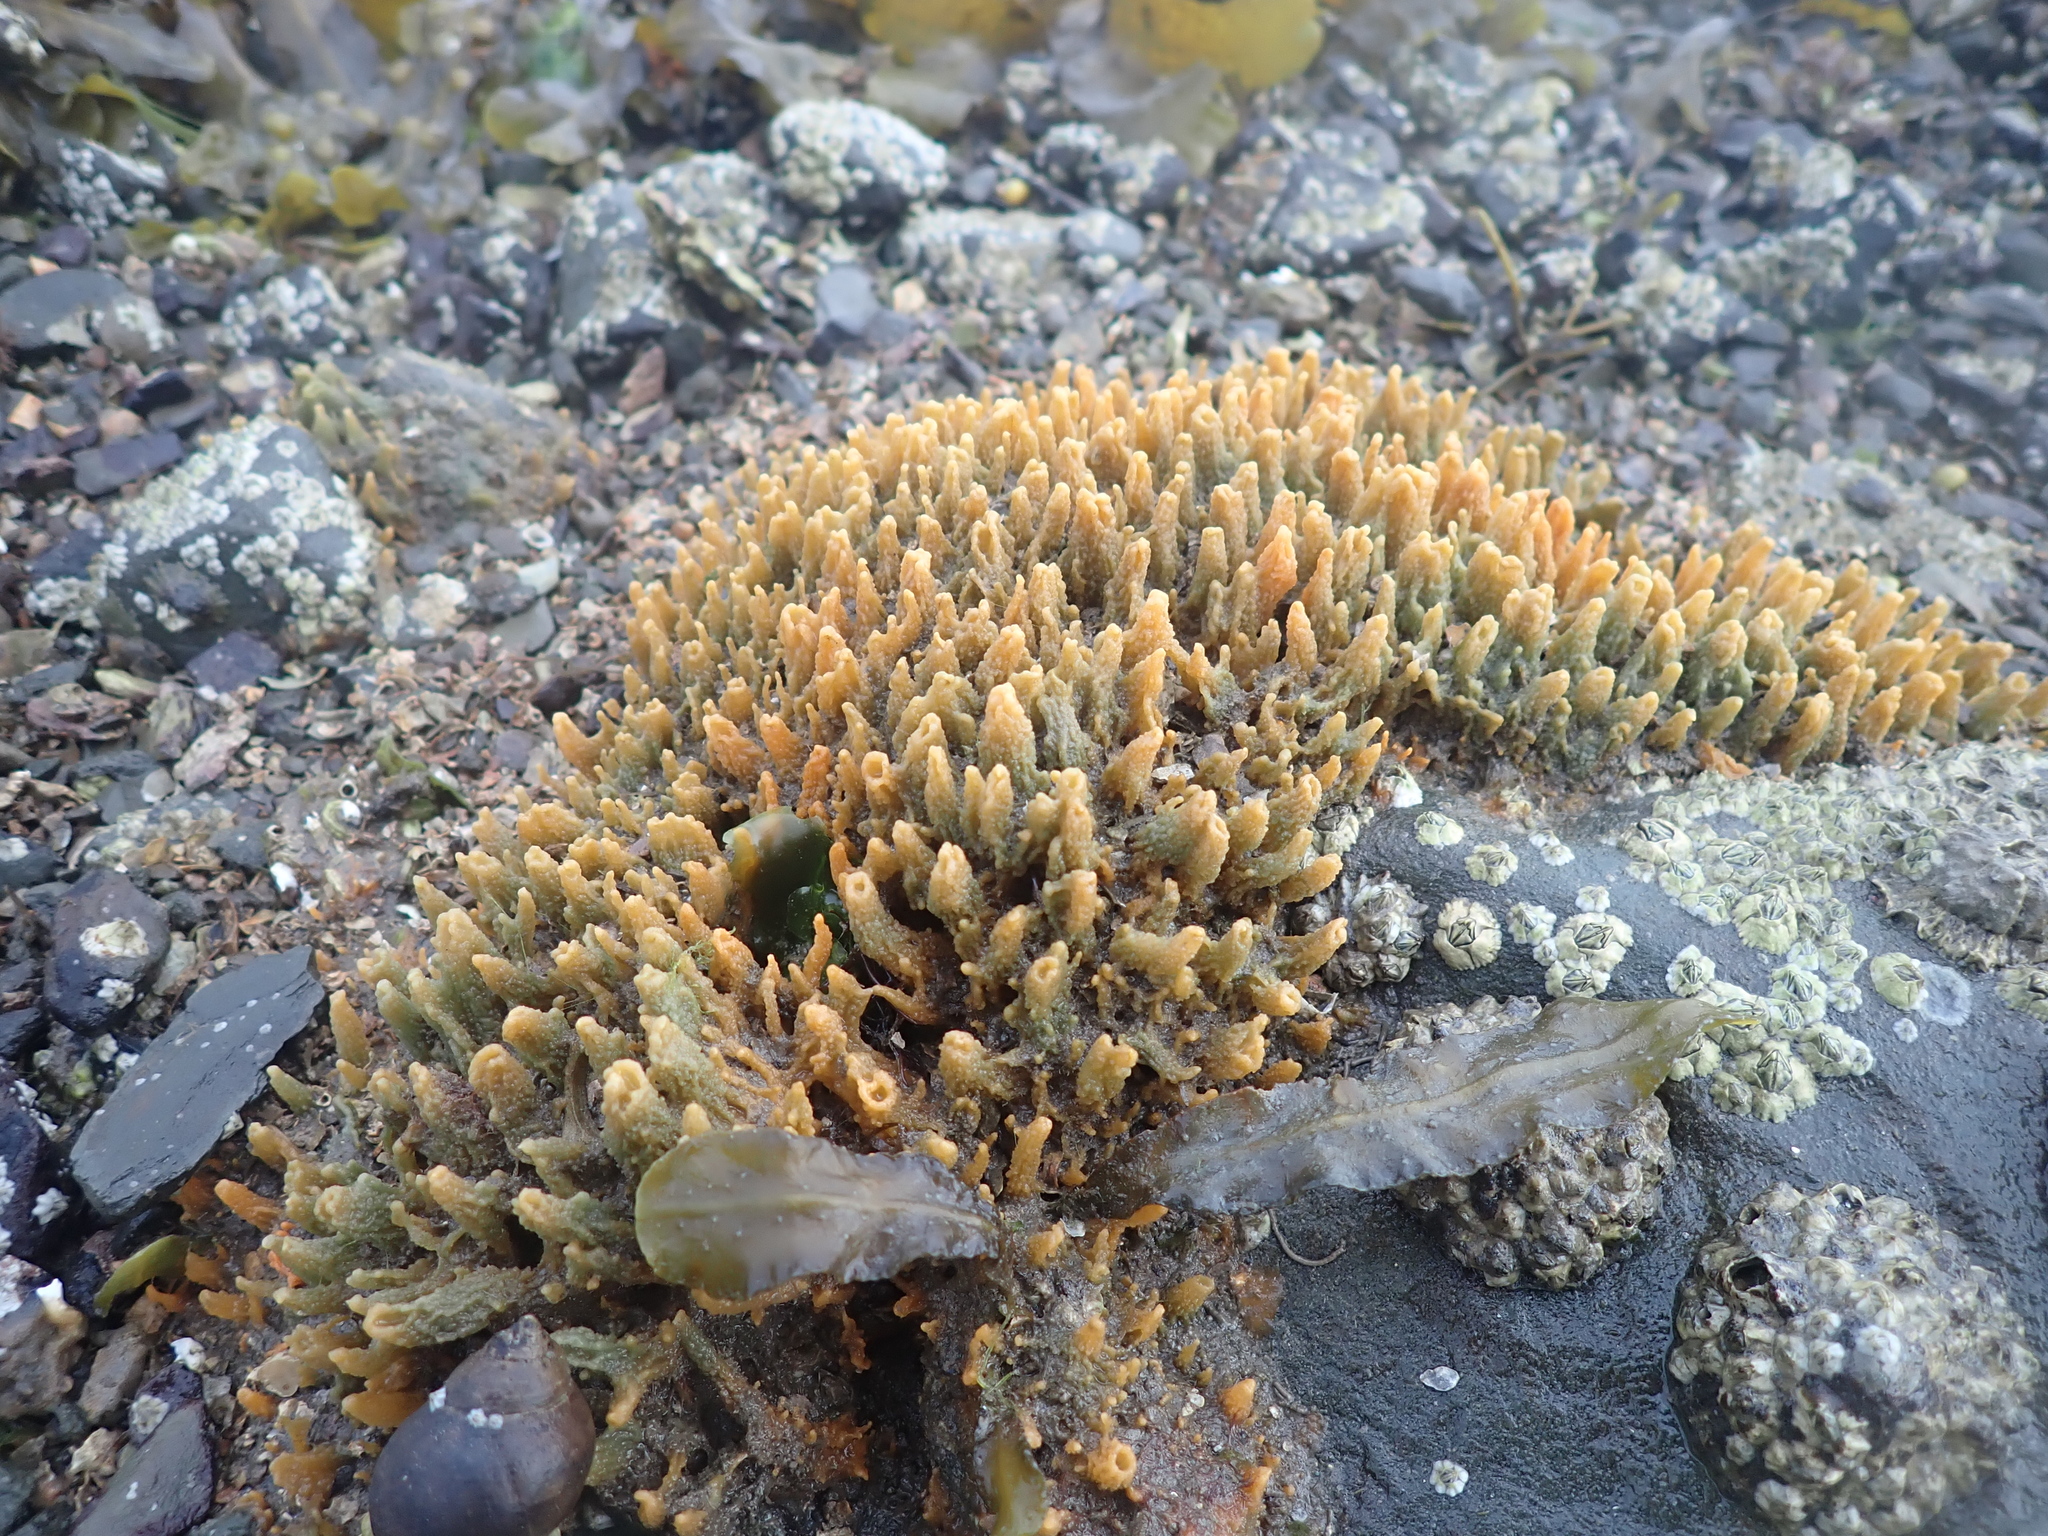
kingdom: Animalia
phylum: Porifera
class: Demospongiae
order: Suberitida
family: Halichondriidae
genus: Hymeniacidon
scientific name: Hymeniacidon perlevis
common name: Crumb-of-bread sponge
